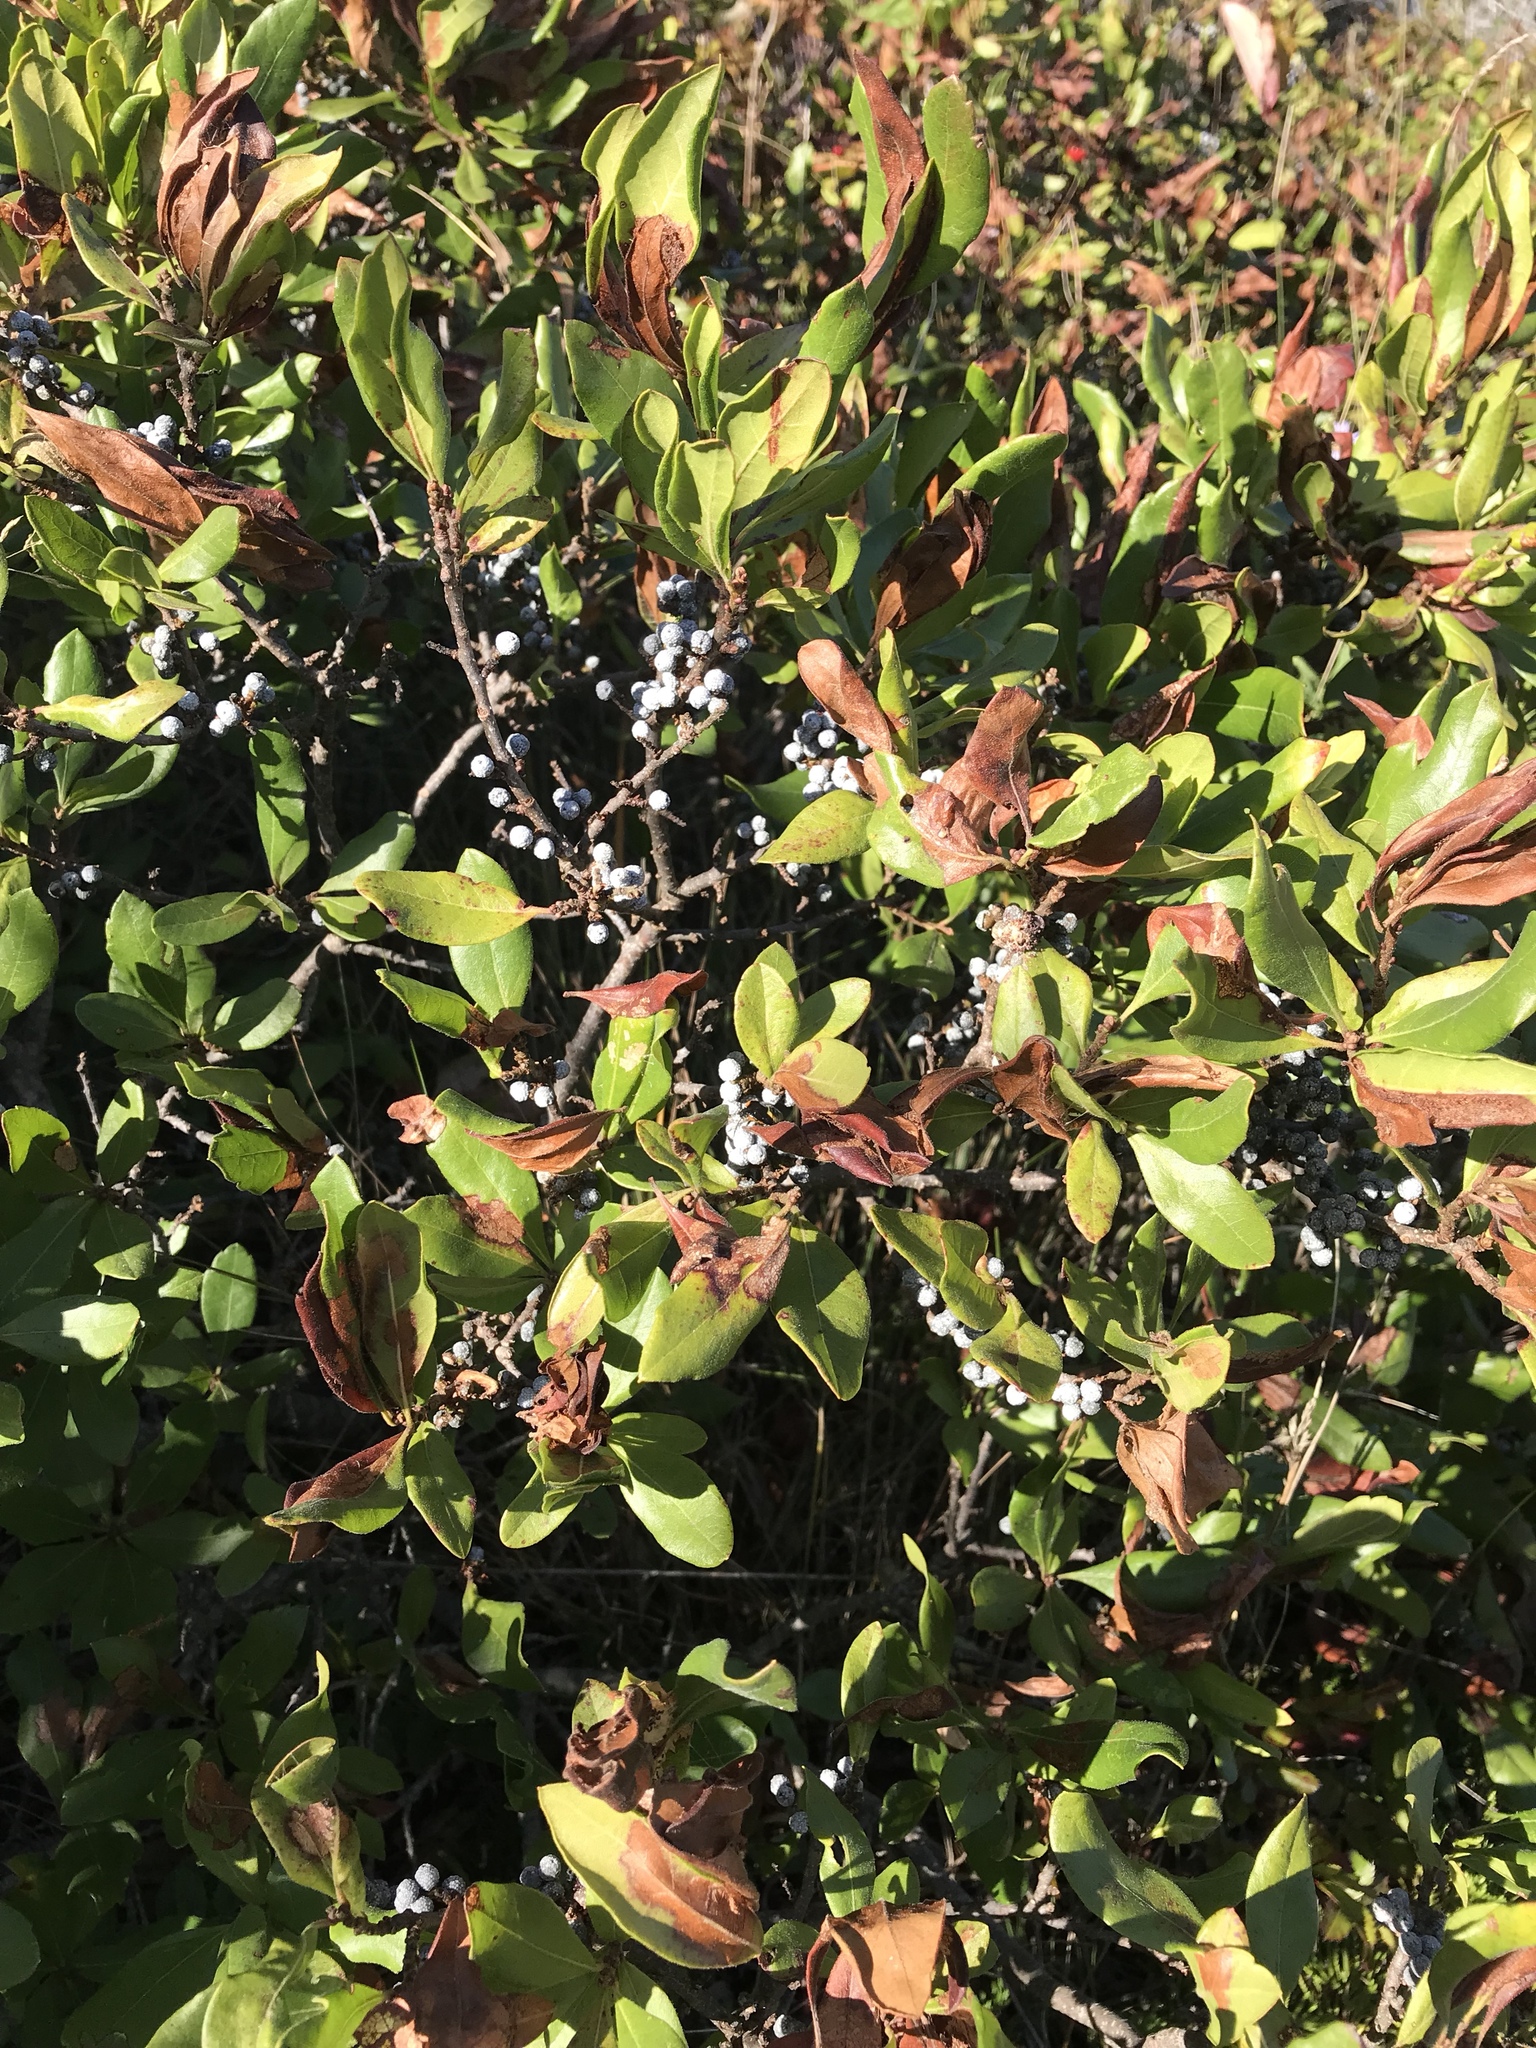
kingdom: Plantae
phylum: Tracheophyta
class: Magnoliopsida
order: Fagales
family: Myricaceae
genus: Morella
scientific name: Morella pensylvanica
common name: Northern bayberry
